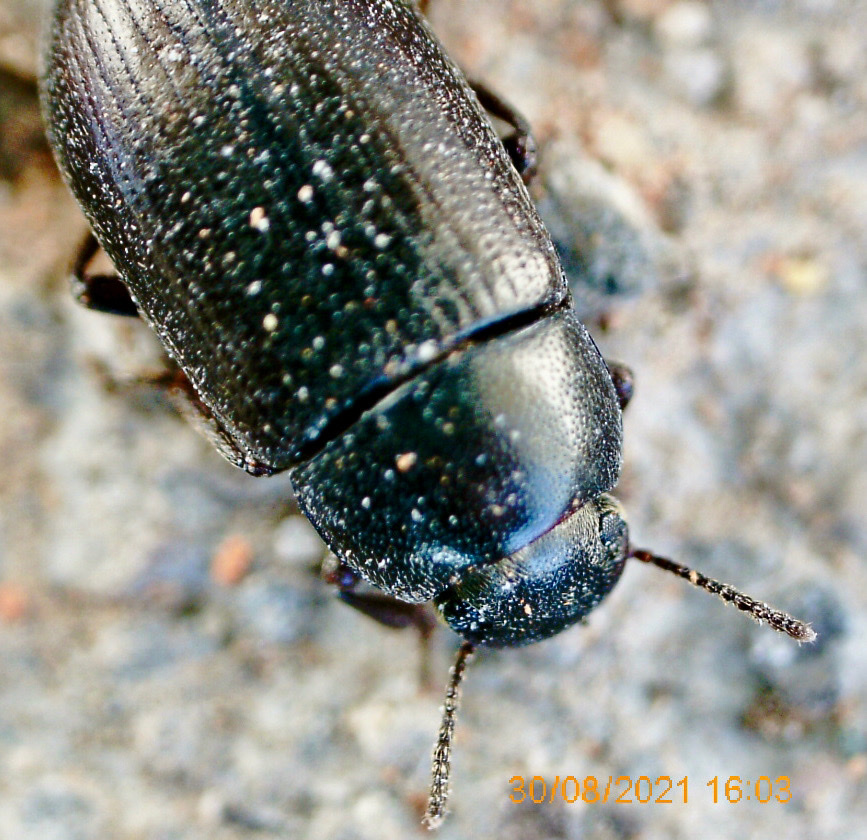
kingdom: Animalia
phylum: Arthropoda
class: Insecta
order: Coleoptera
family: Tenebrionidae
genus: Blapstinus
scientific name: Blapstinus punctulatus
